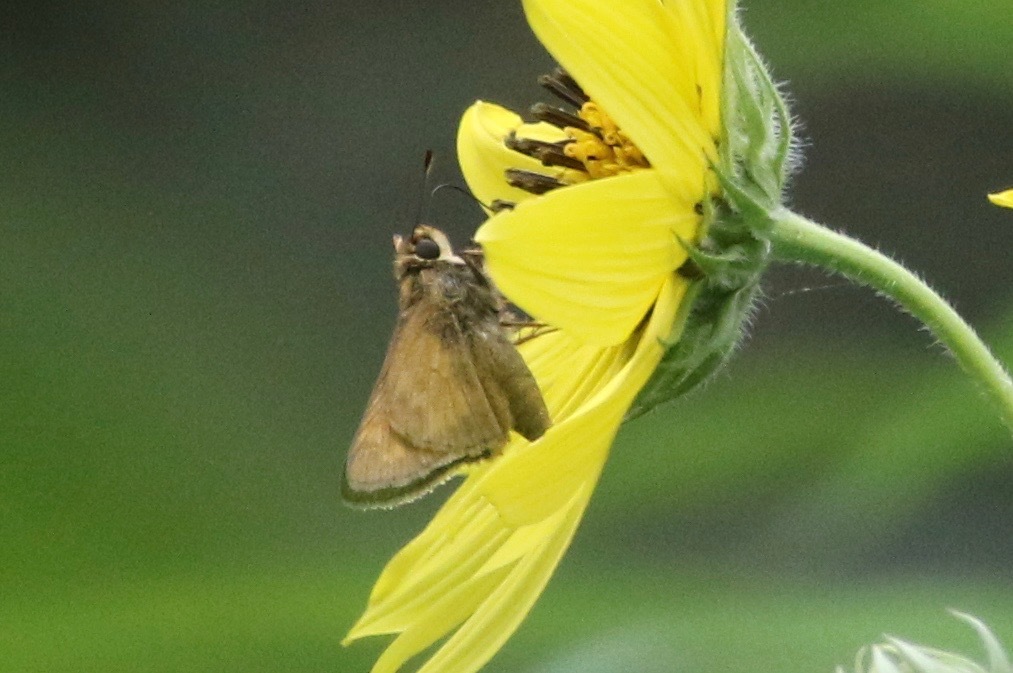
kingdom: Animalia
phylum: Arthropoda
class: Insecta
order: Lepidoptera
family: Hesperiidae
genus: Atalopedes
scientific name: Atalopedes
